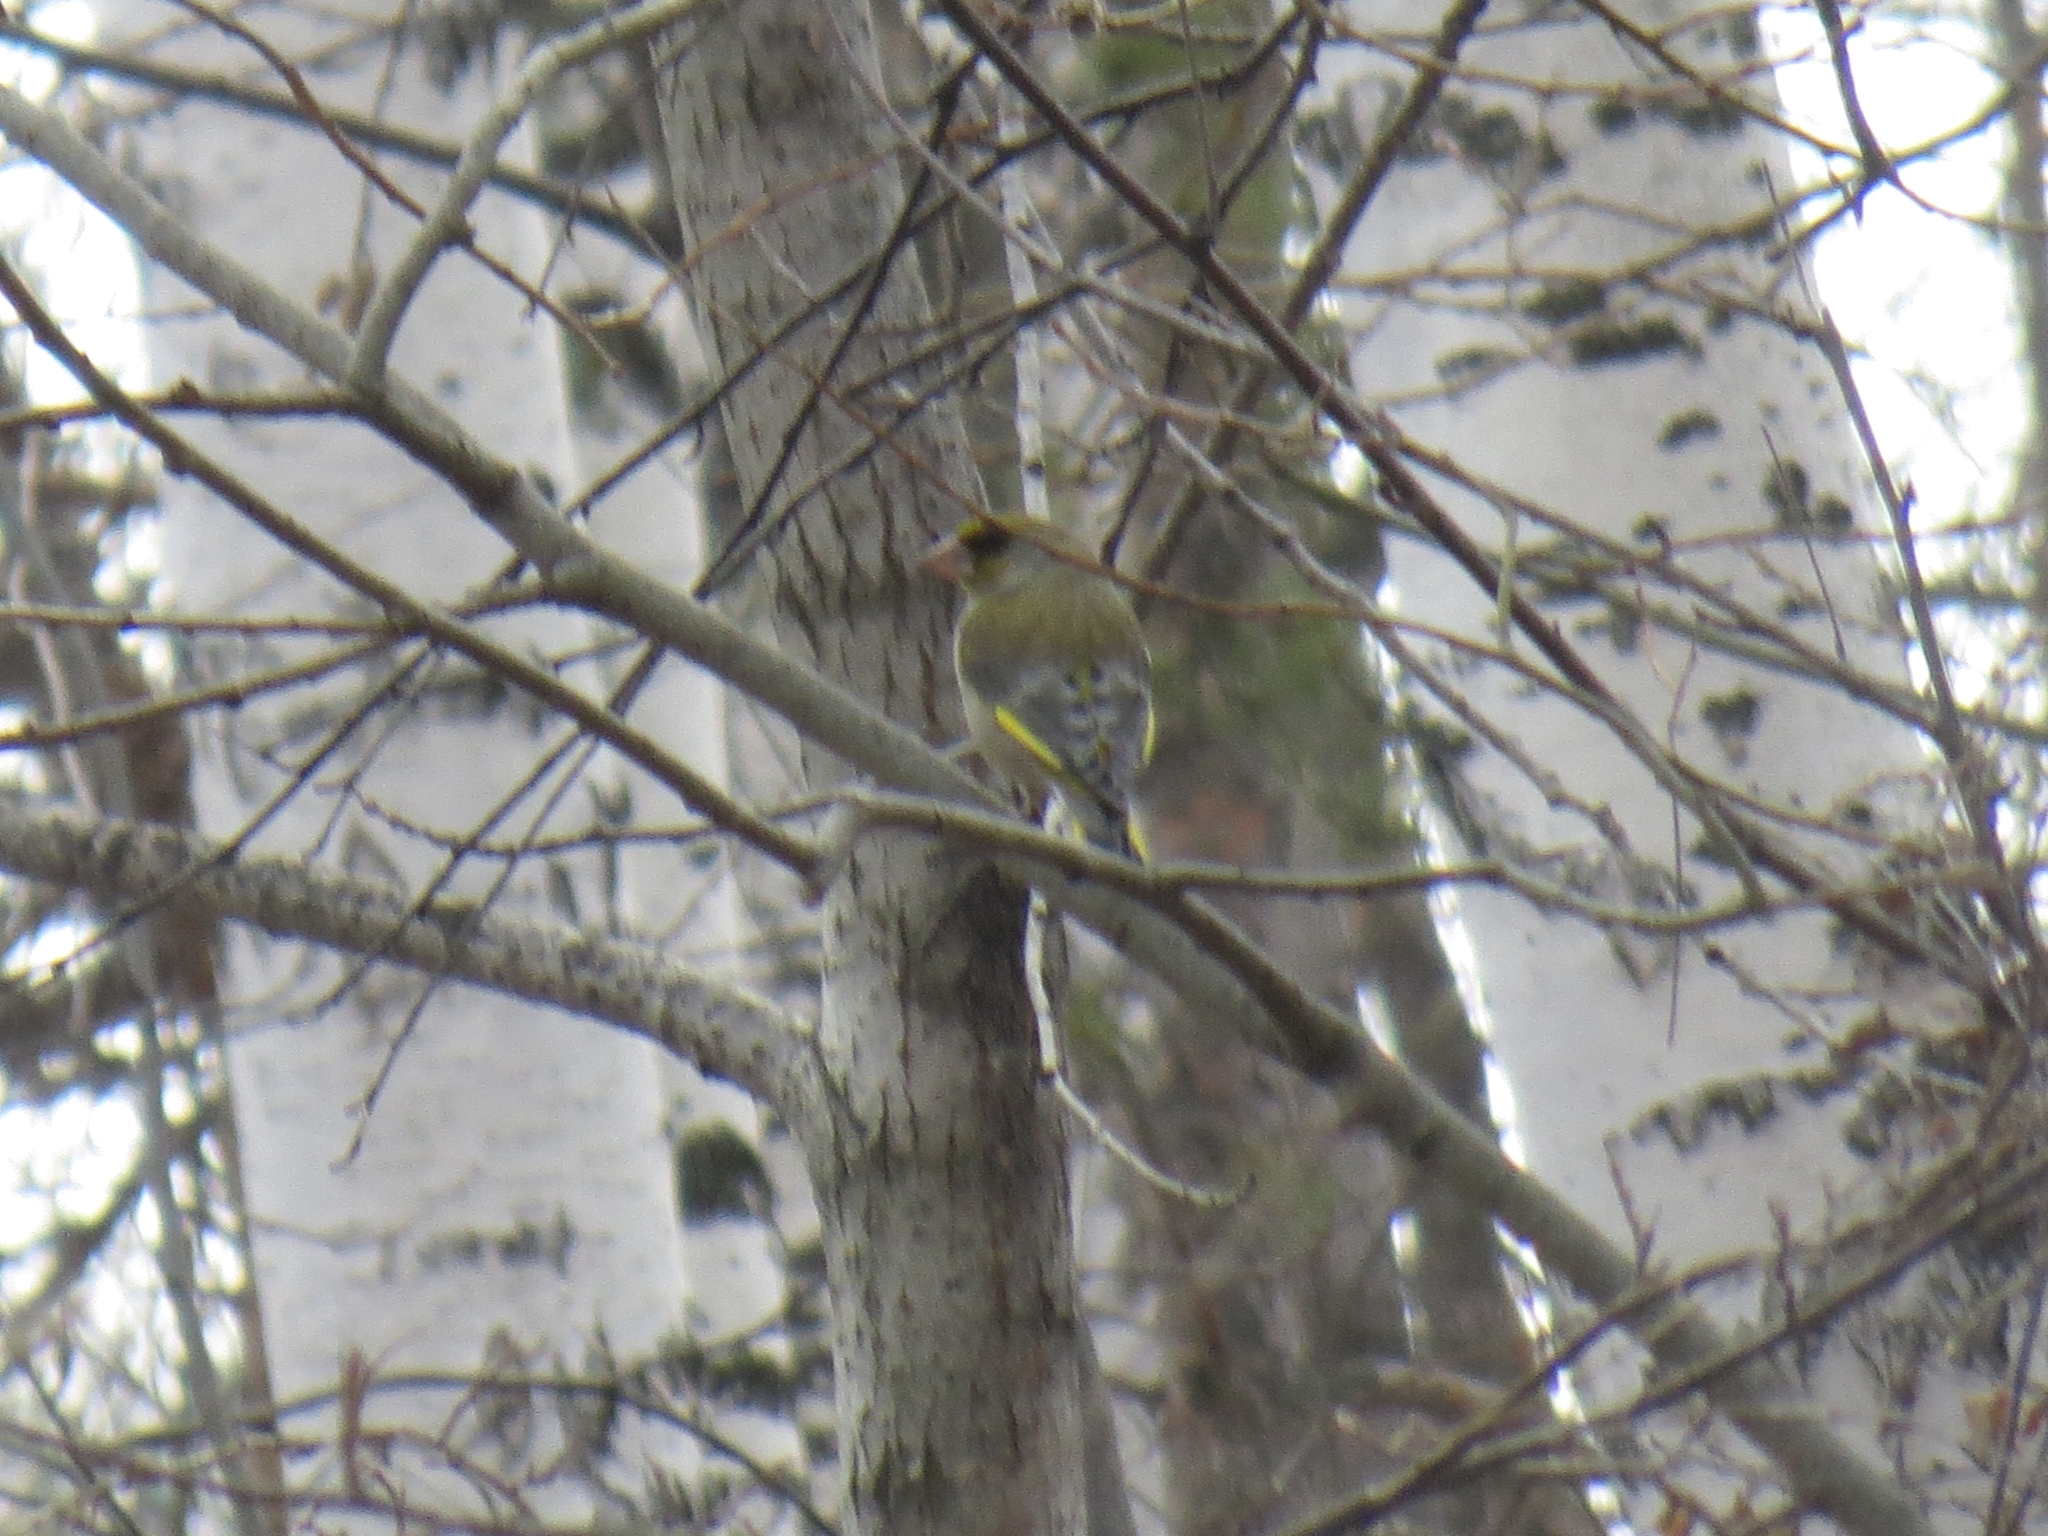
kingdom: Plantae
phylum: Tracheophyta
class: Liliopsida
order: Poales
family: Poaceae
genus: Chloris
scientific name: Chloris chloris
